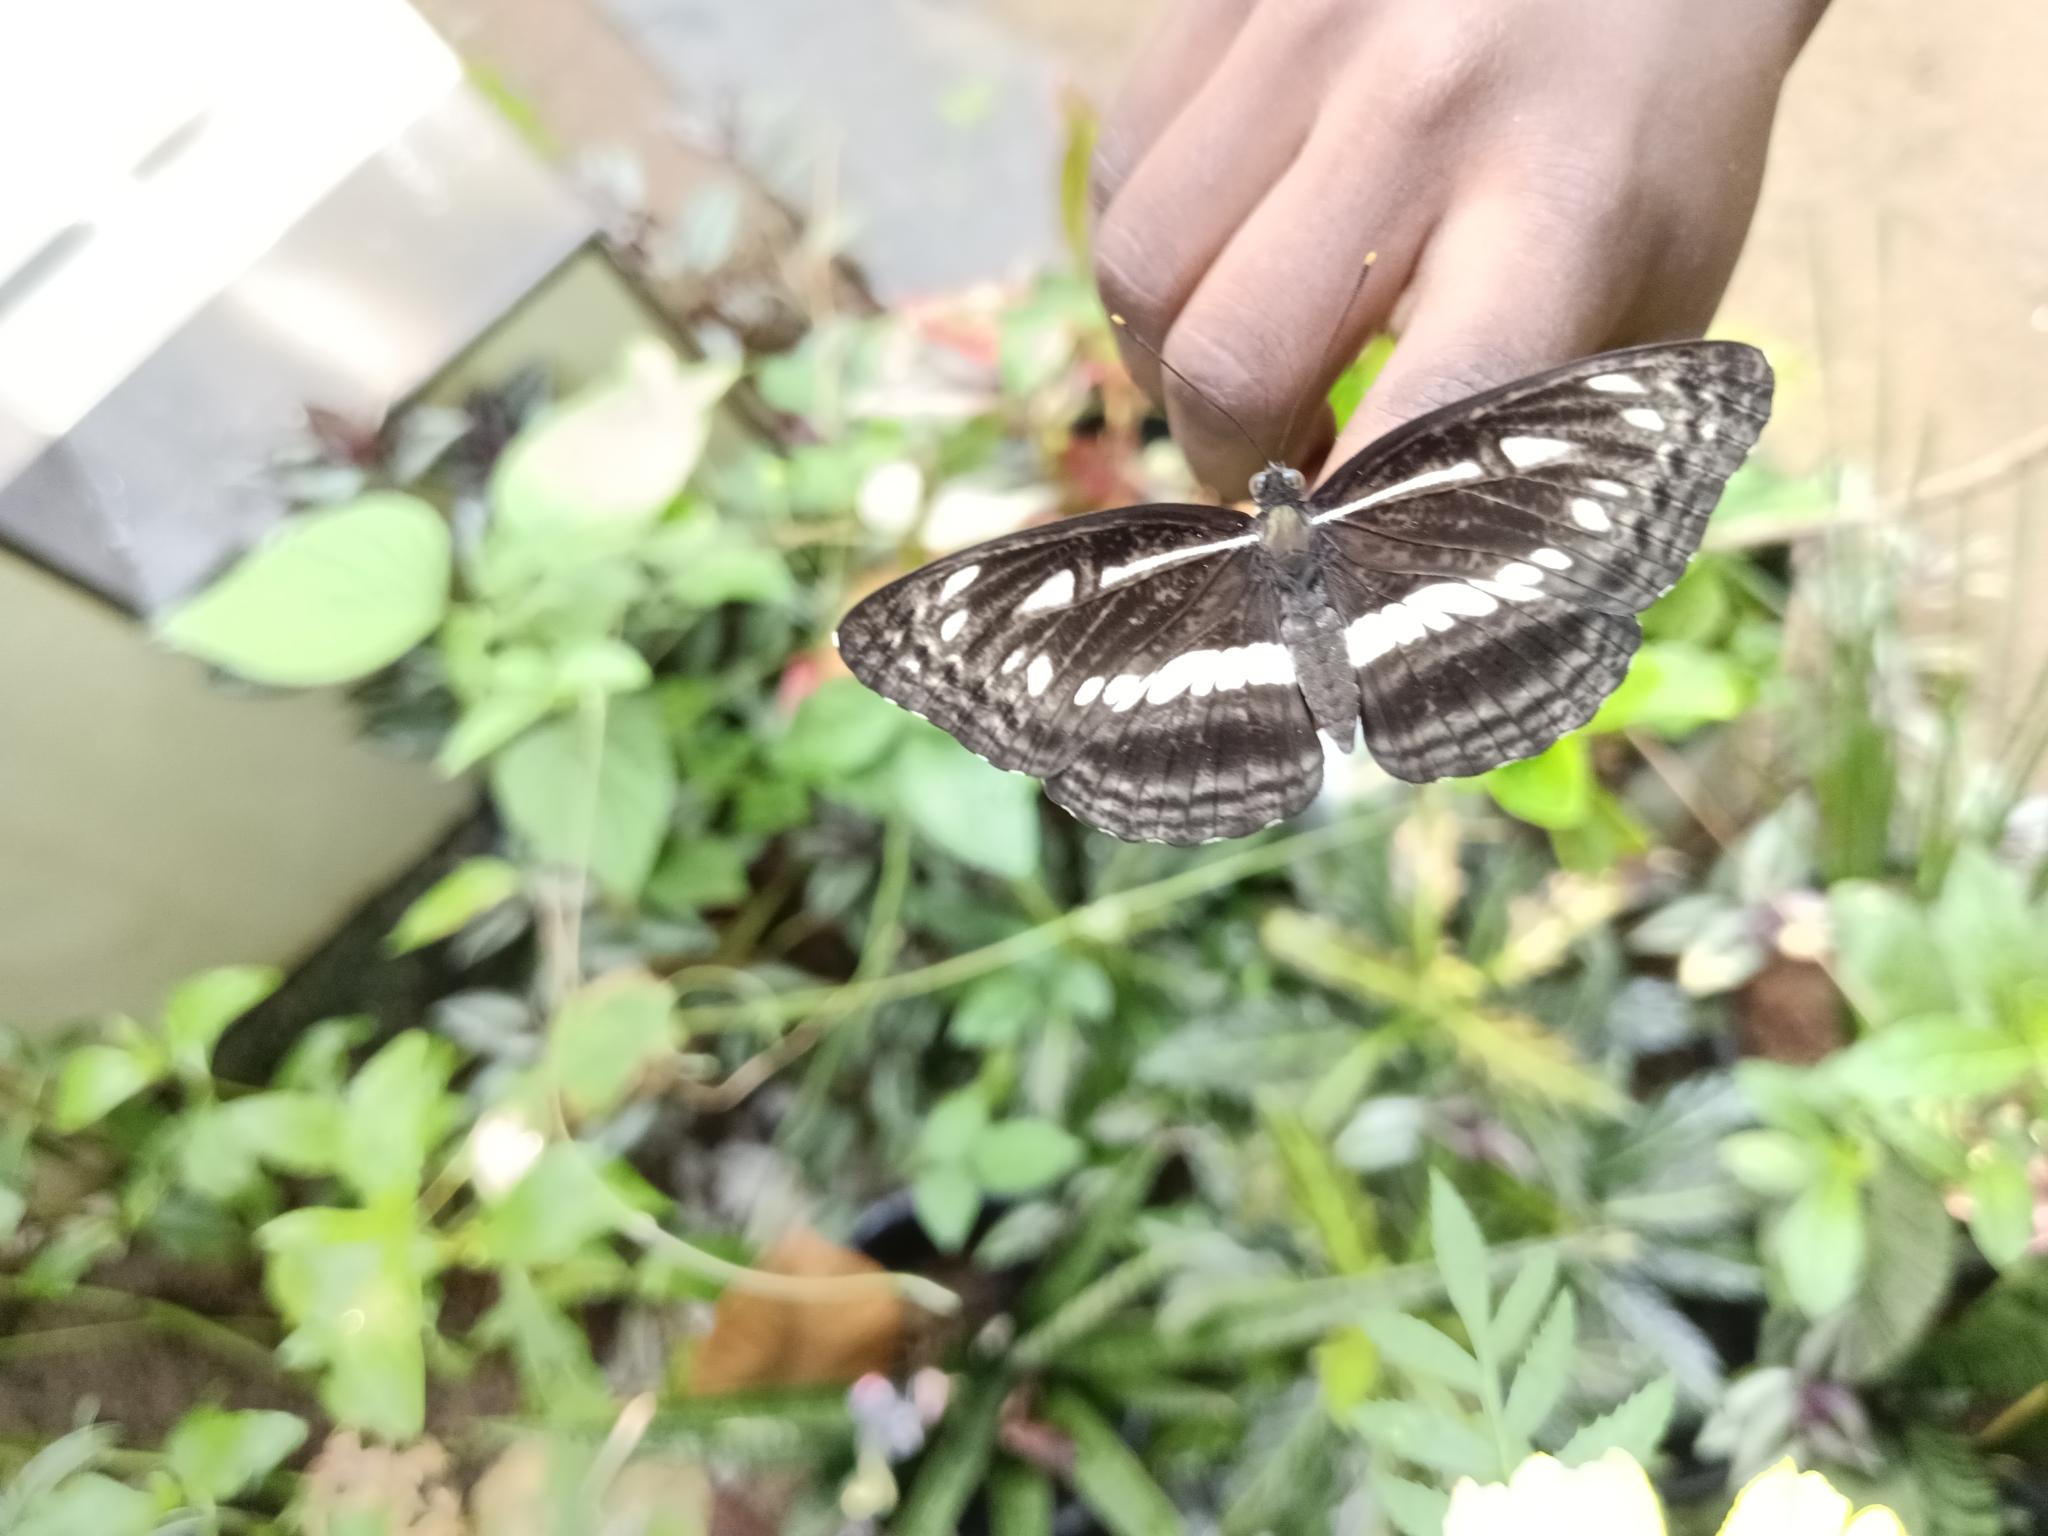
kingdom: Animalia
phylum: Arthropoda
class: Insecta
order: Lepidoptera
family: Nymphalidae
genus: Neptis
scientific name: Neptis jumbah
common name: Chestnut-streaked sailer
